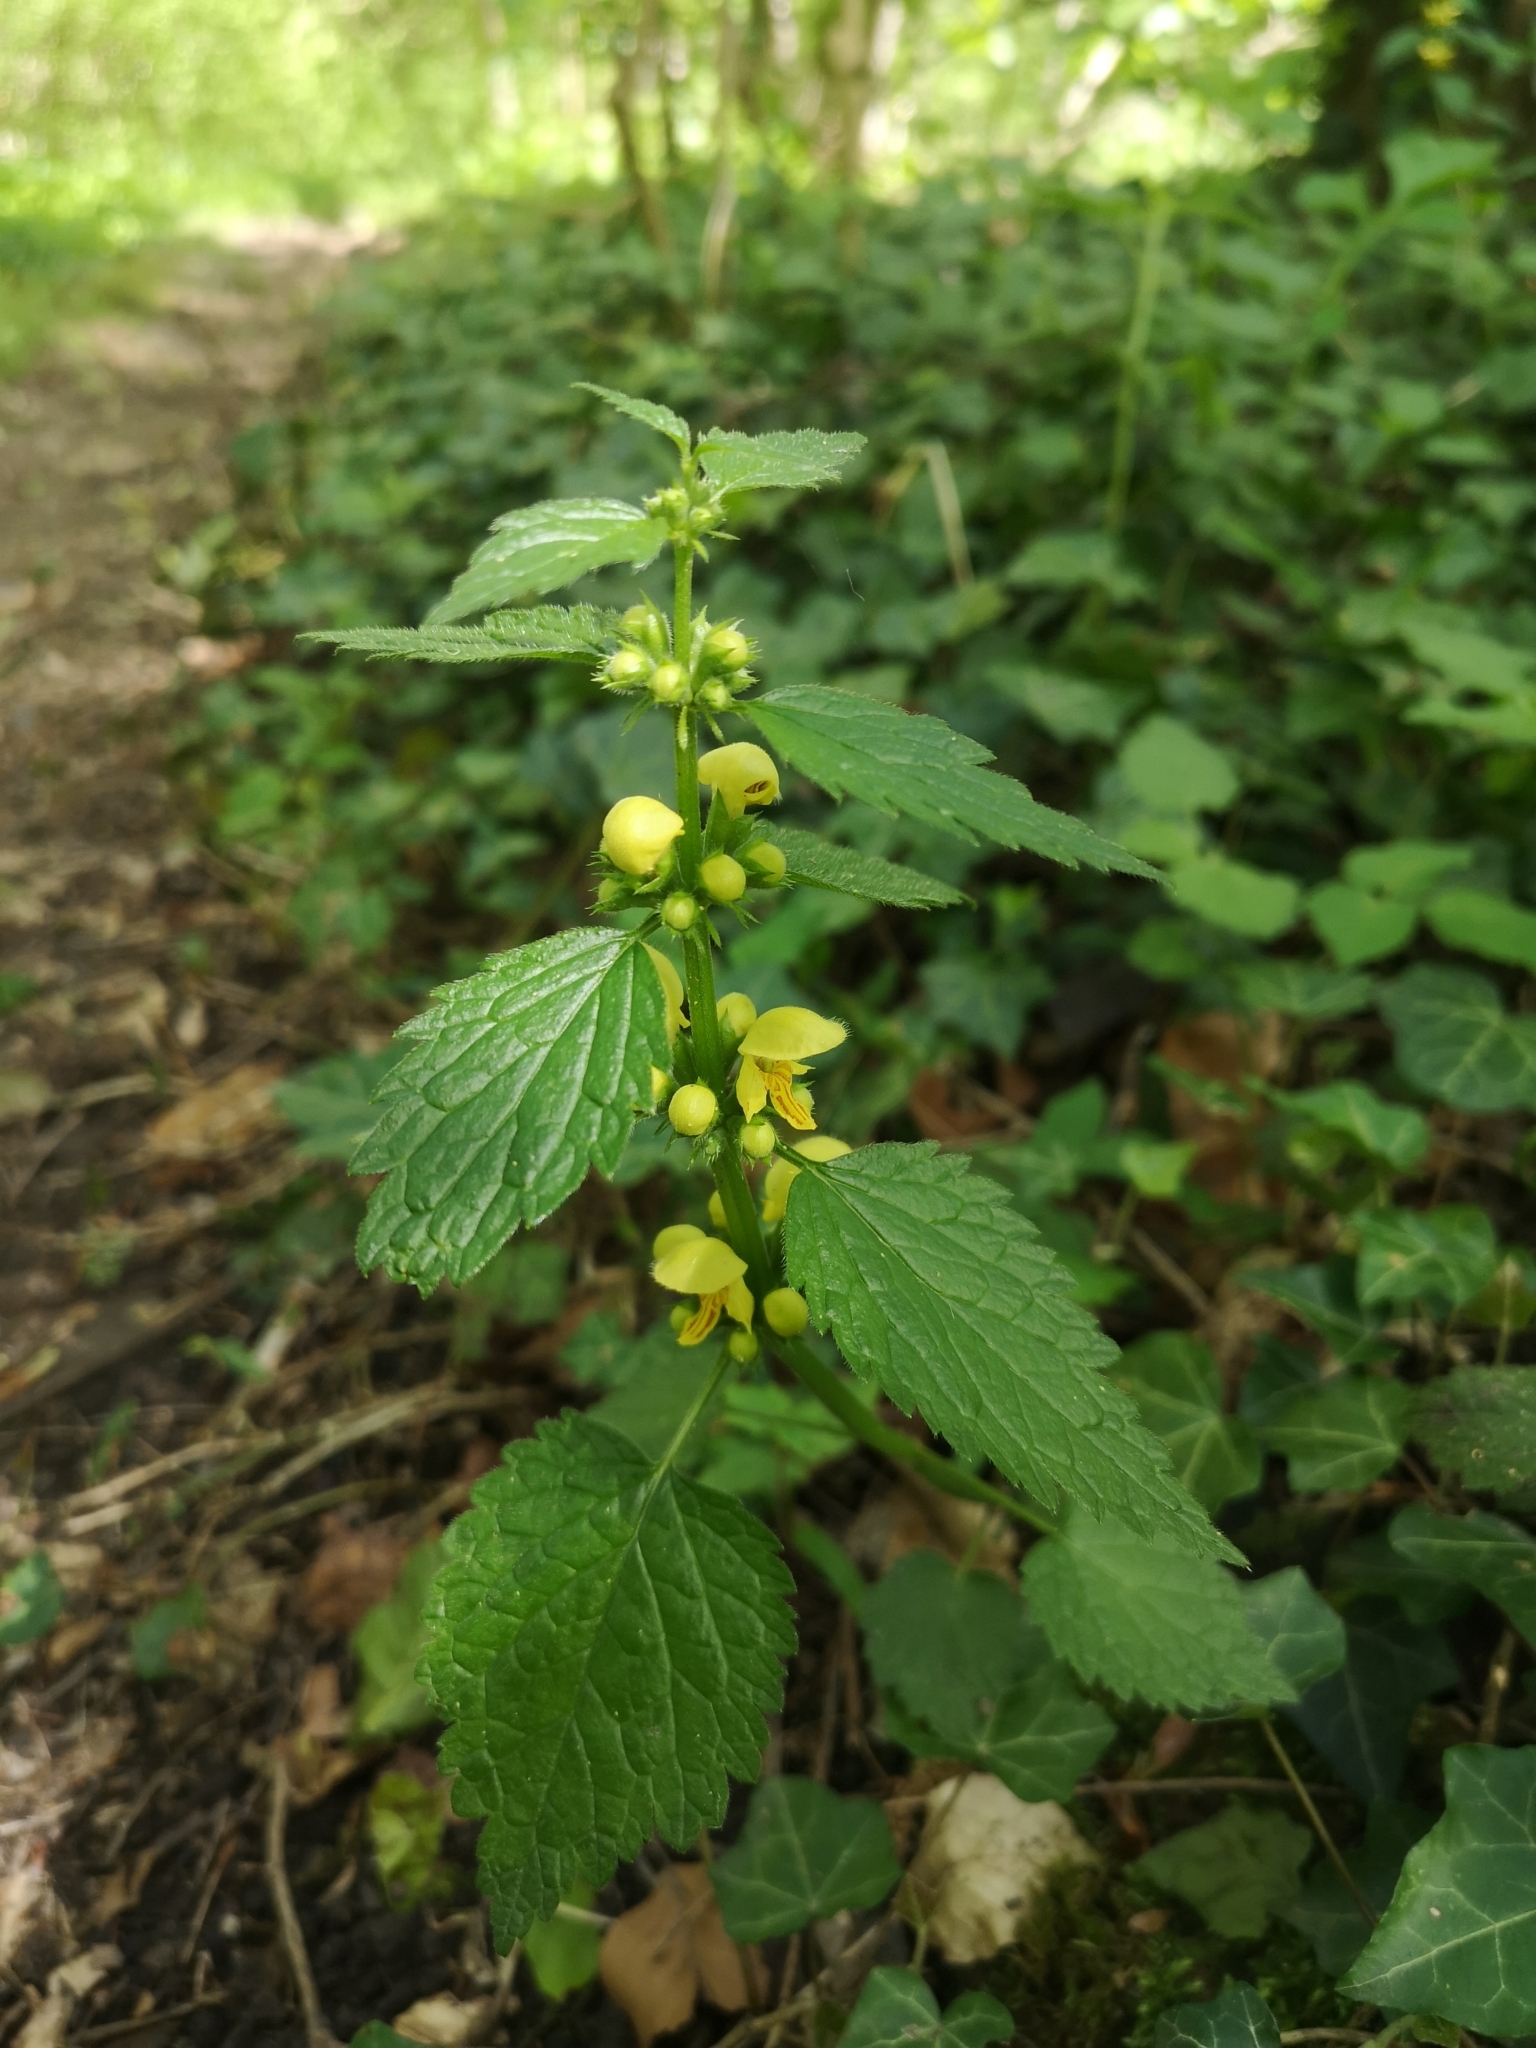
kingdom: Plantae
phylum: Tracheophyta
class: Magnoliopsida
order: Lamiales
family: Lamiaceae
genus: Lamium
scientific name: Lamium galeobdolon
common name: Yellow archangel
